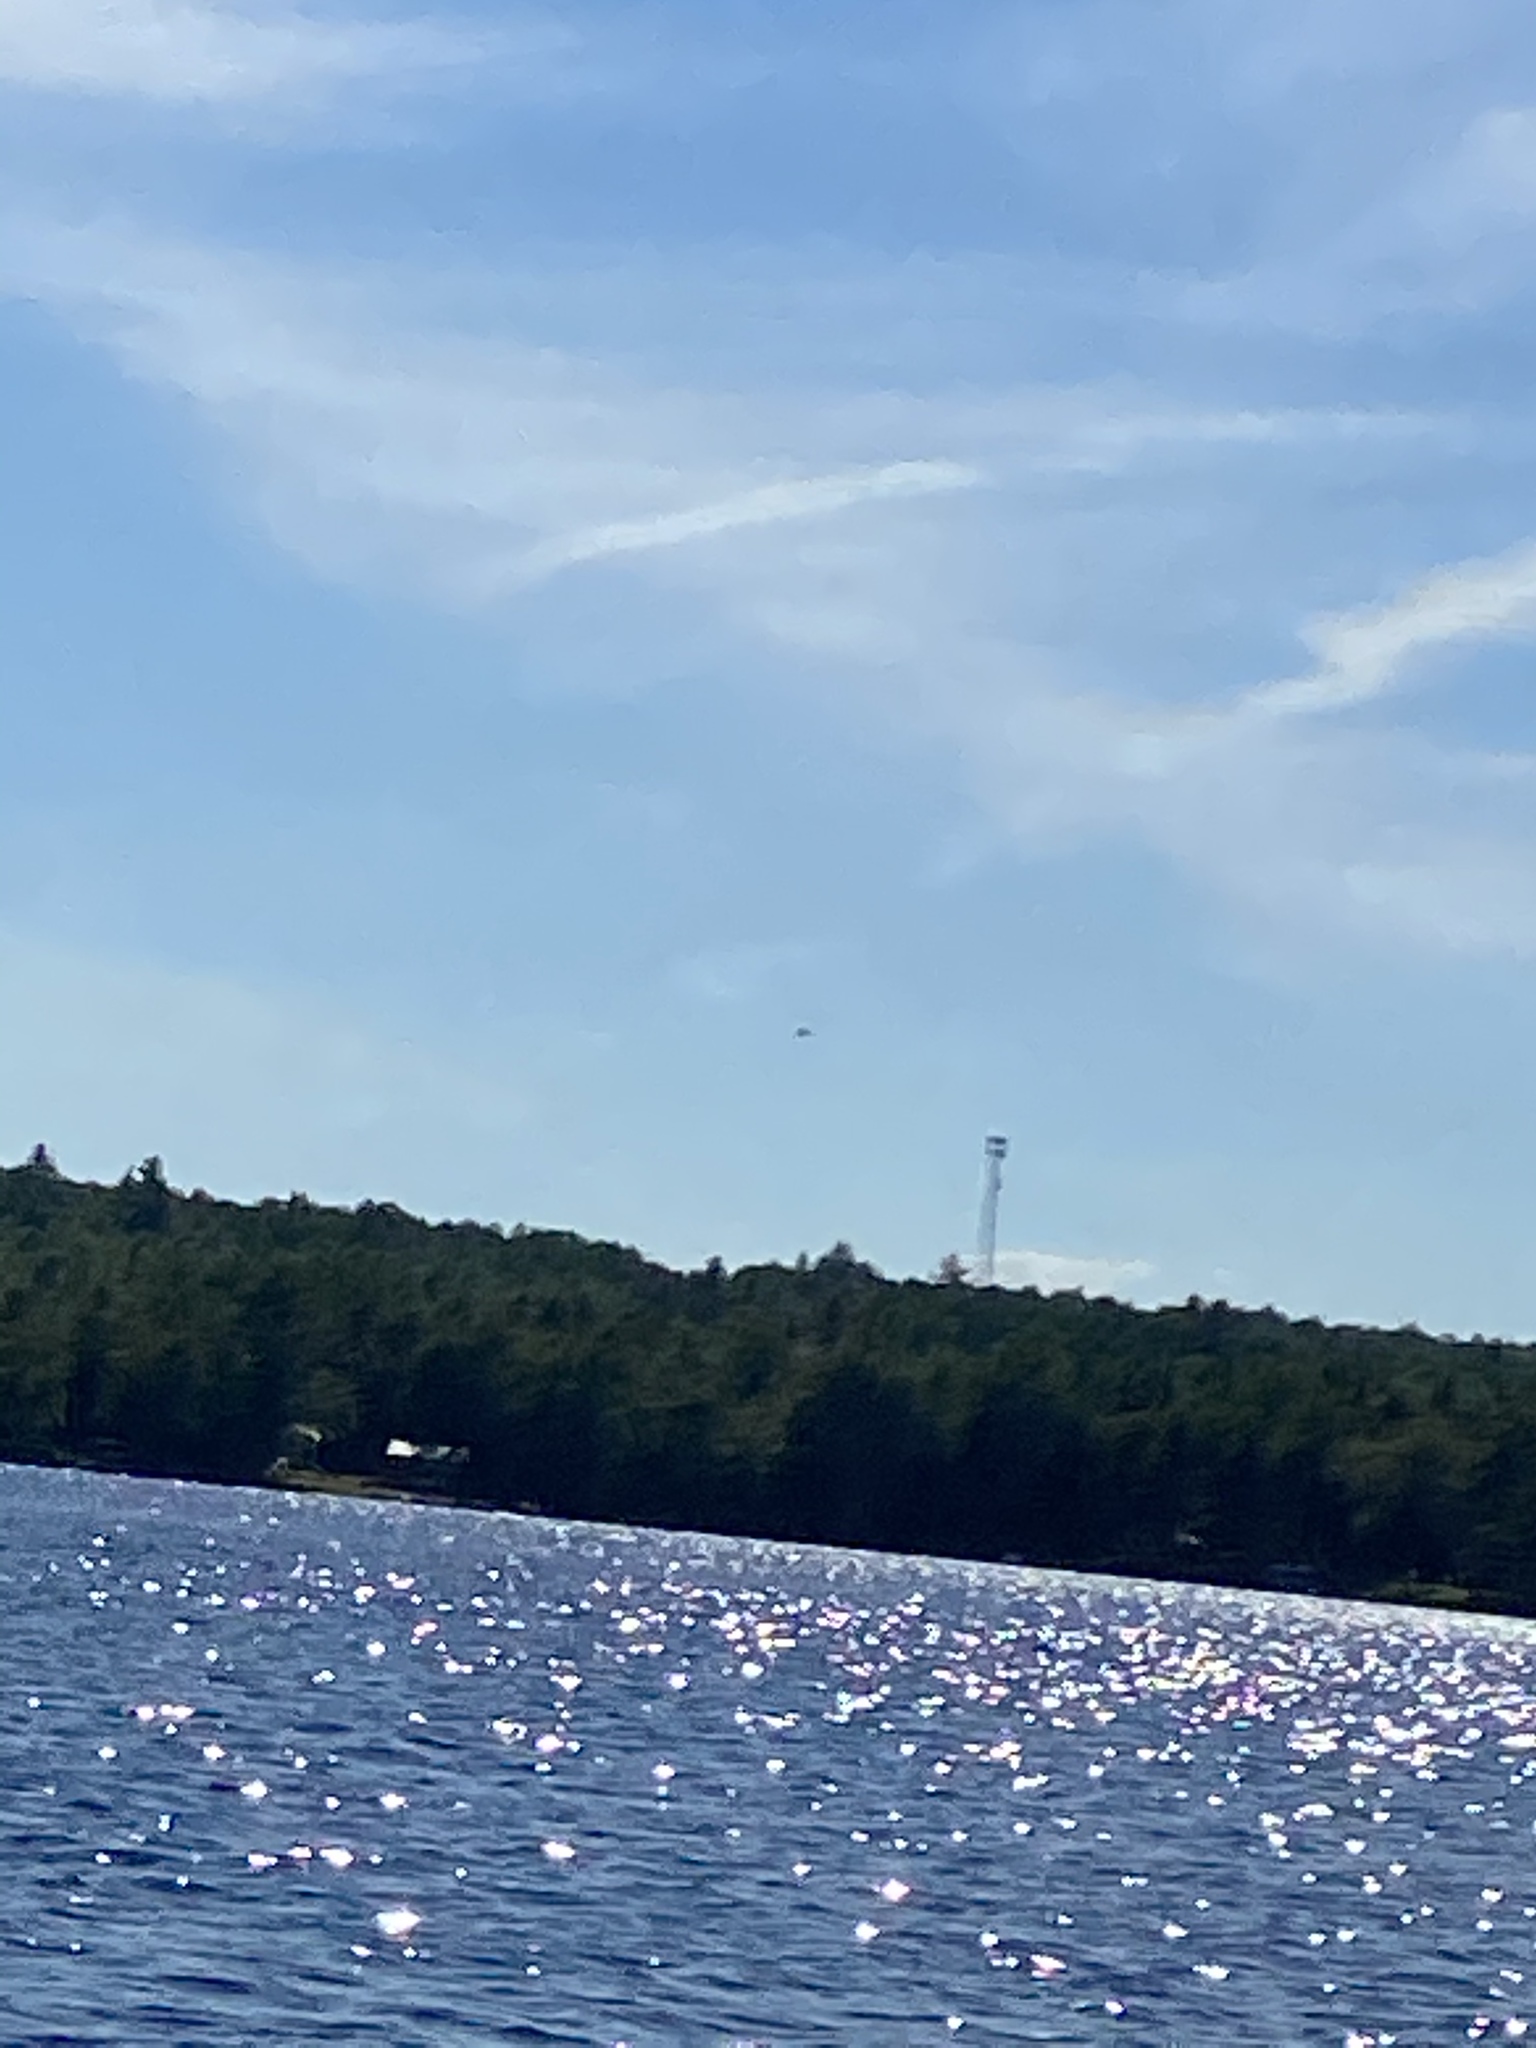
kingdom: Animalia
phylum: Chordata
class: Aves
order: Accipitriformes
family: Accipitridae
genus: Haliaeetus
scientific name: Haliaeetus leucocephalus
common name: Bald eagle
